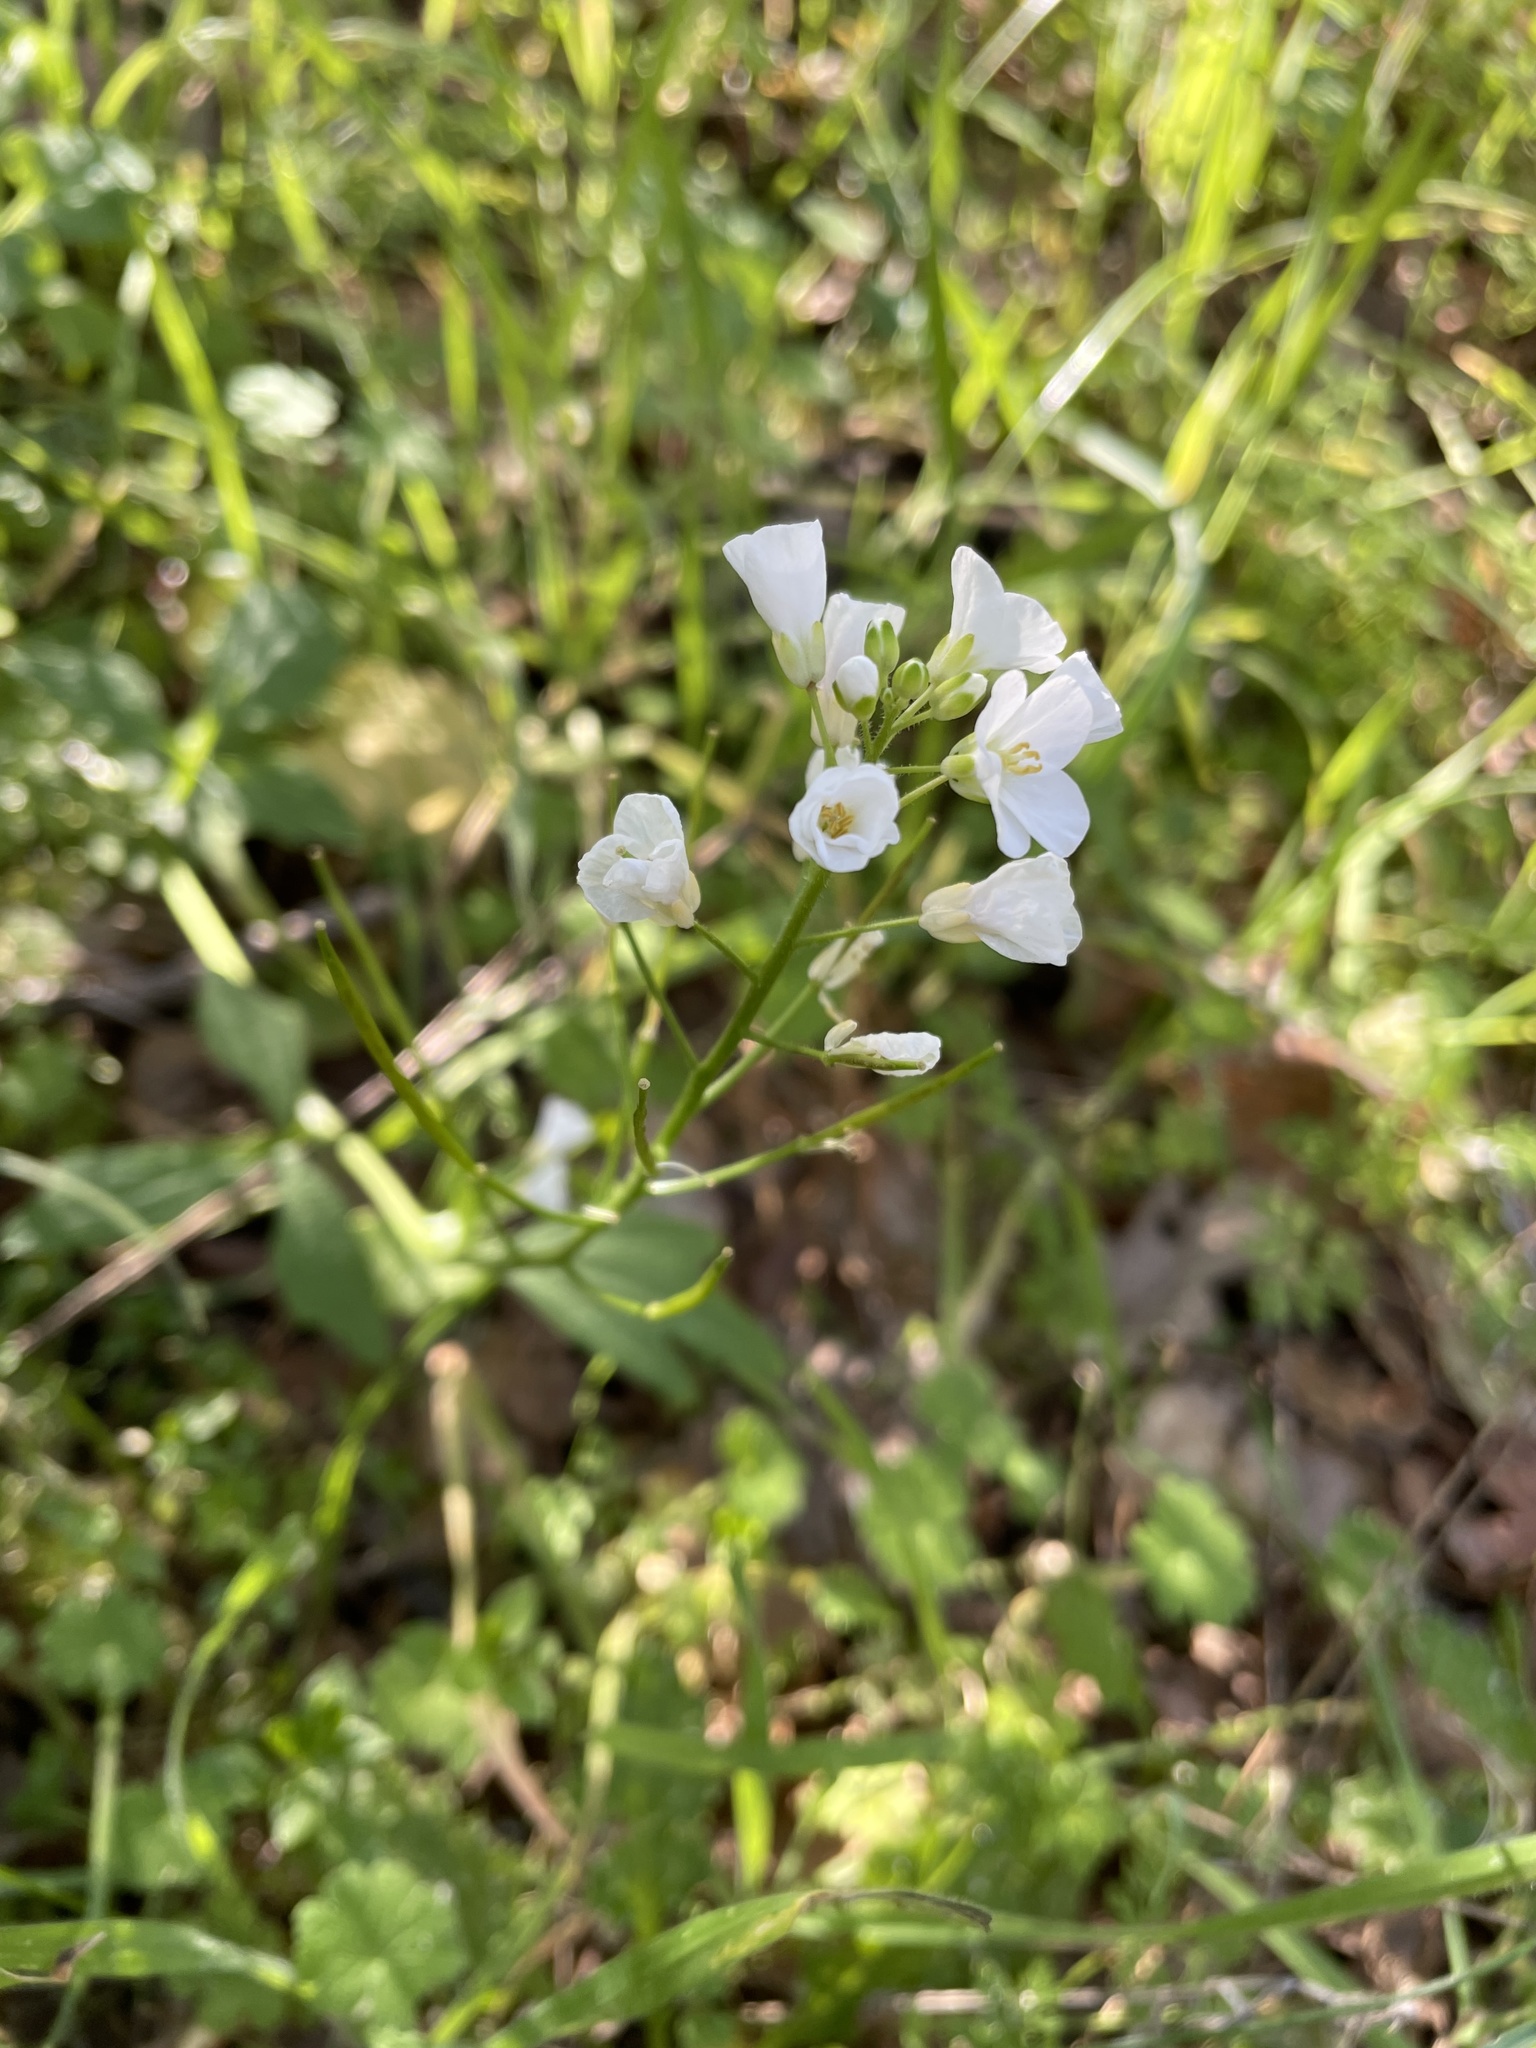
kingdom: Plantae
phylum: Tracheophyta
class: Magnoliopsida
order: Brassicales
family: Brassicaceae
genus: Cardamine
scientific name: Cardamine californica
